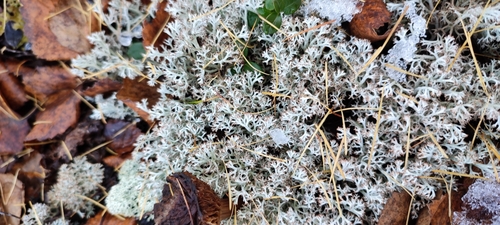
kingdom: Fungi
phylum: Ascomycota
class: Lecanoromycetes
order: Lecanorales
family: Cladoniaceae
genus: Cladonia
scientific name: Cladonia rangiferina
